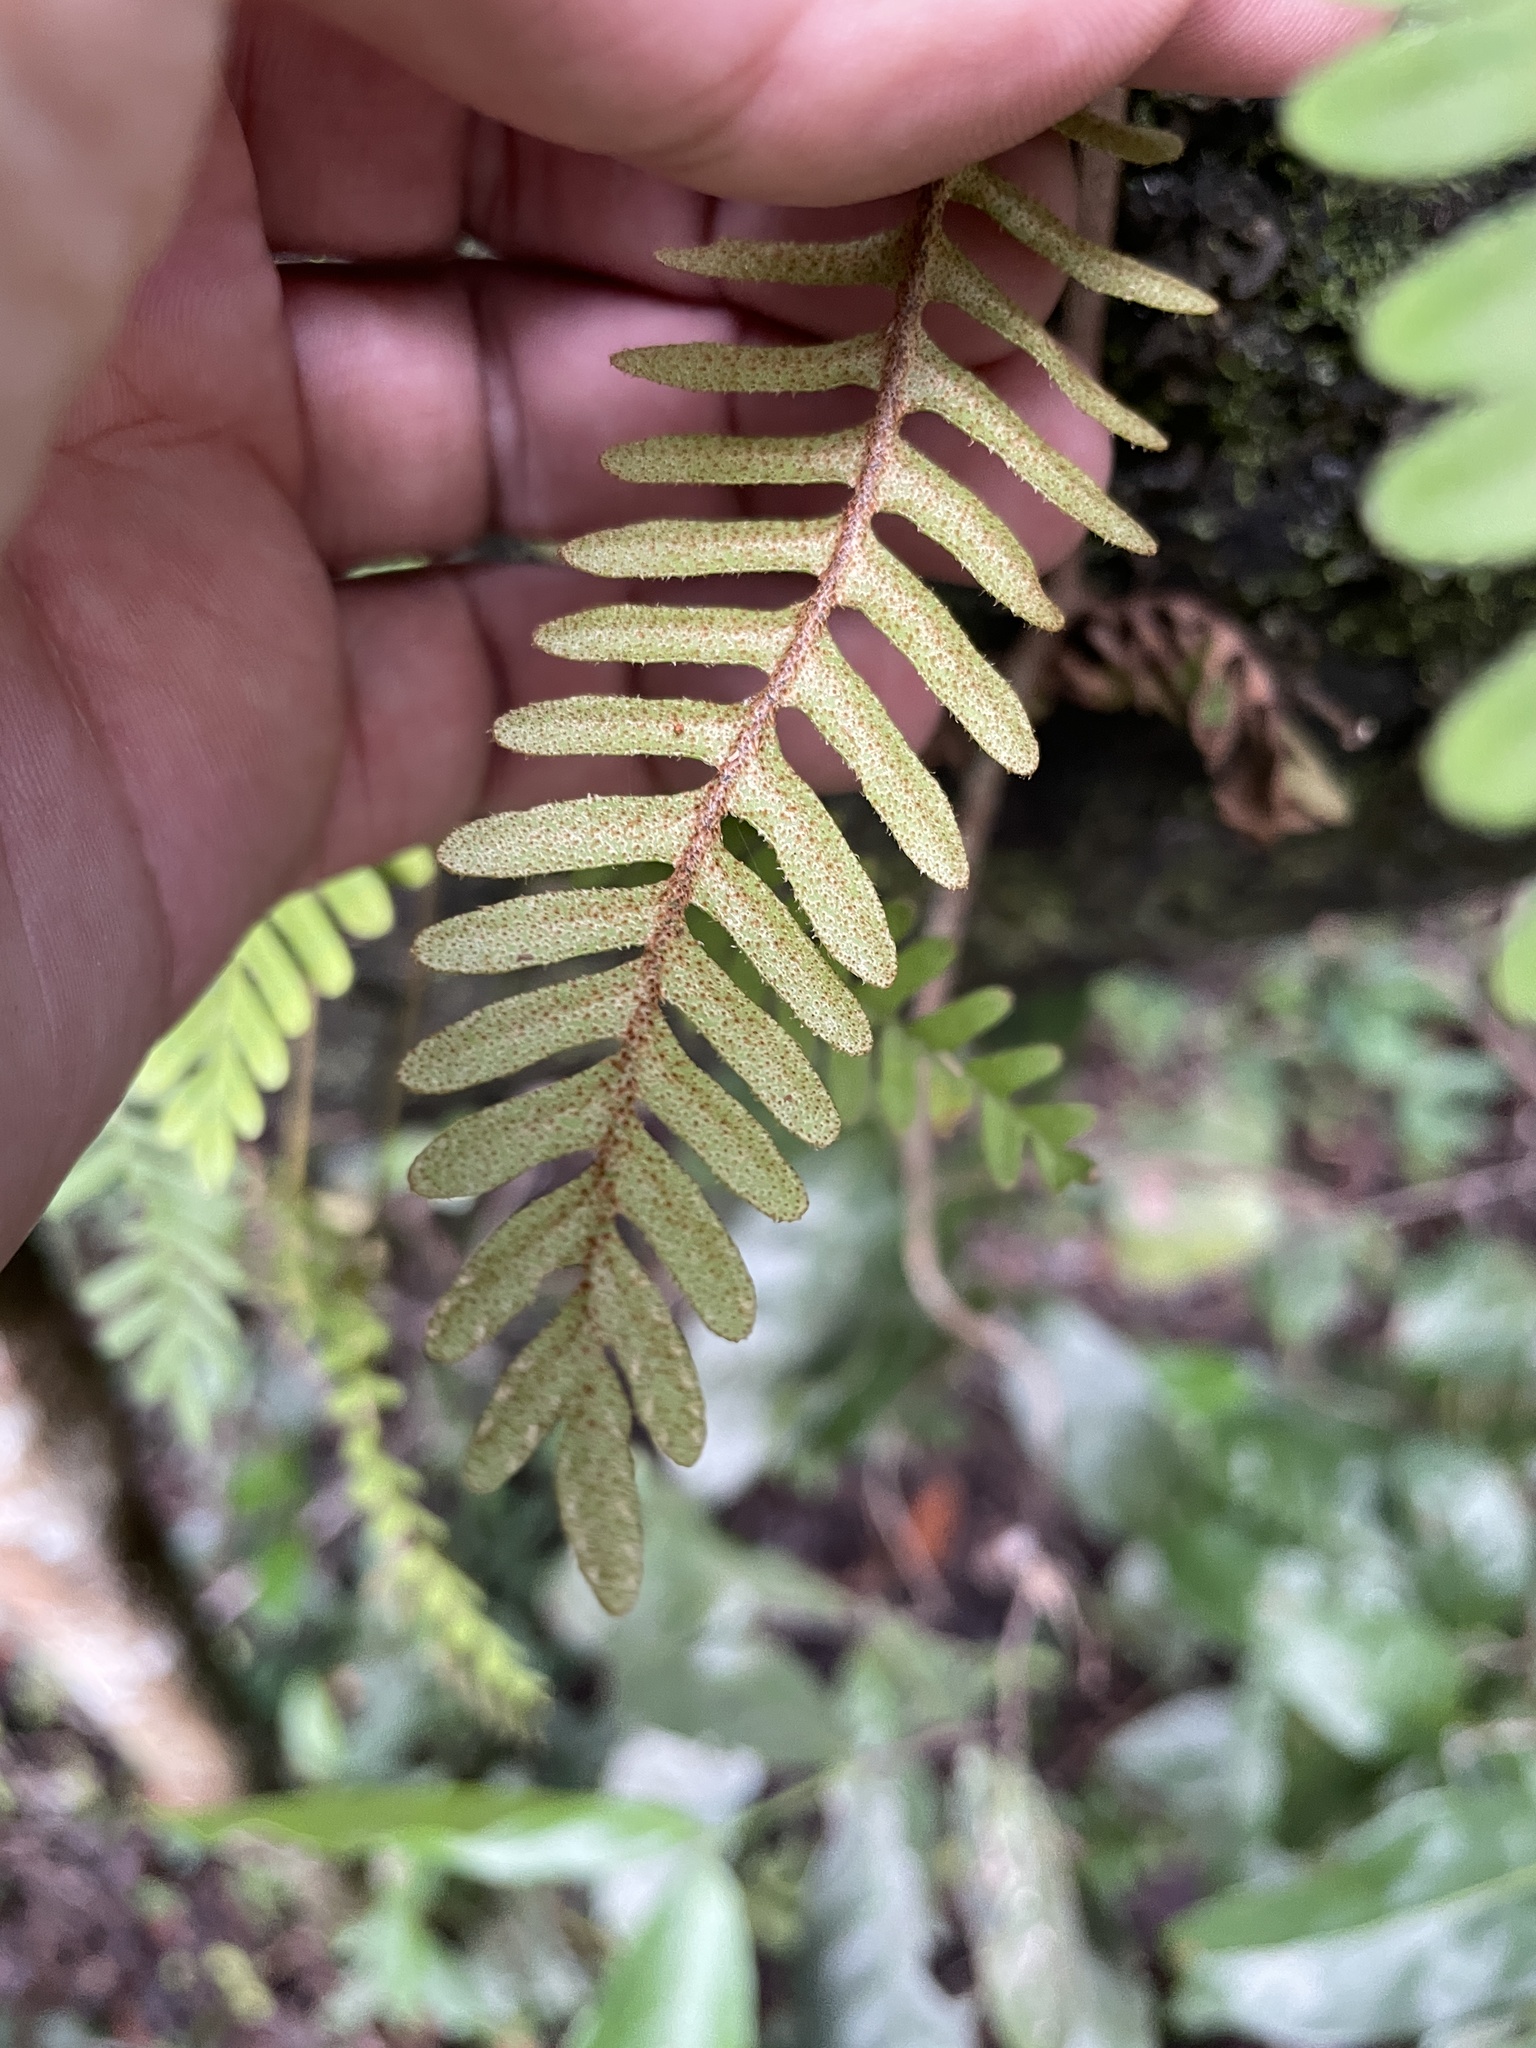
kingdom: Plantae
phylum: Tracheophyta
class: Polypodiopsida
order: Polypodiales
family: Polypodiaceae
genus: Pleopeltis
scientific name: Pleopeltis michauxiana
